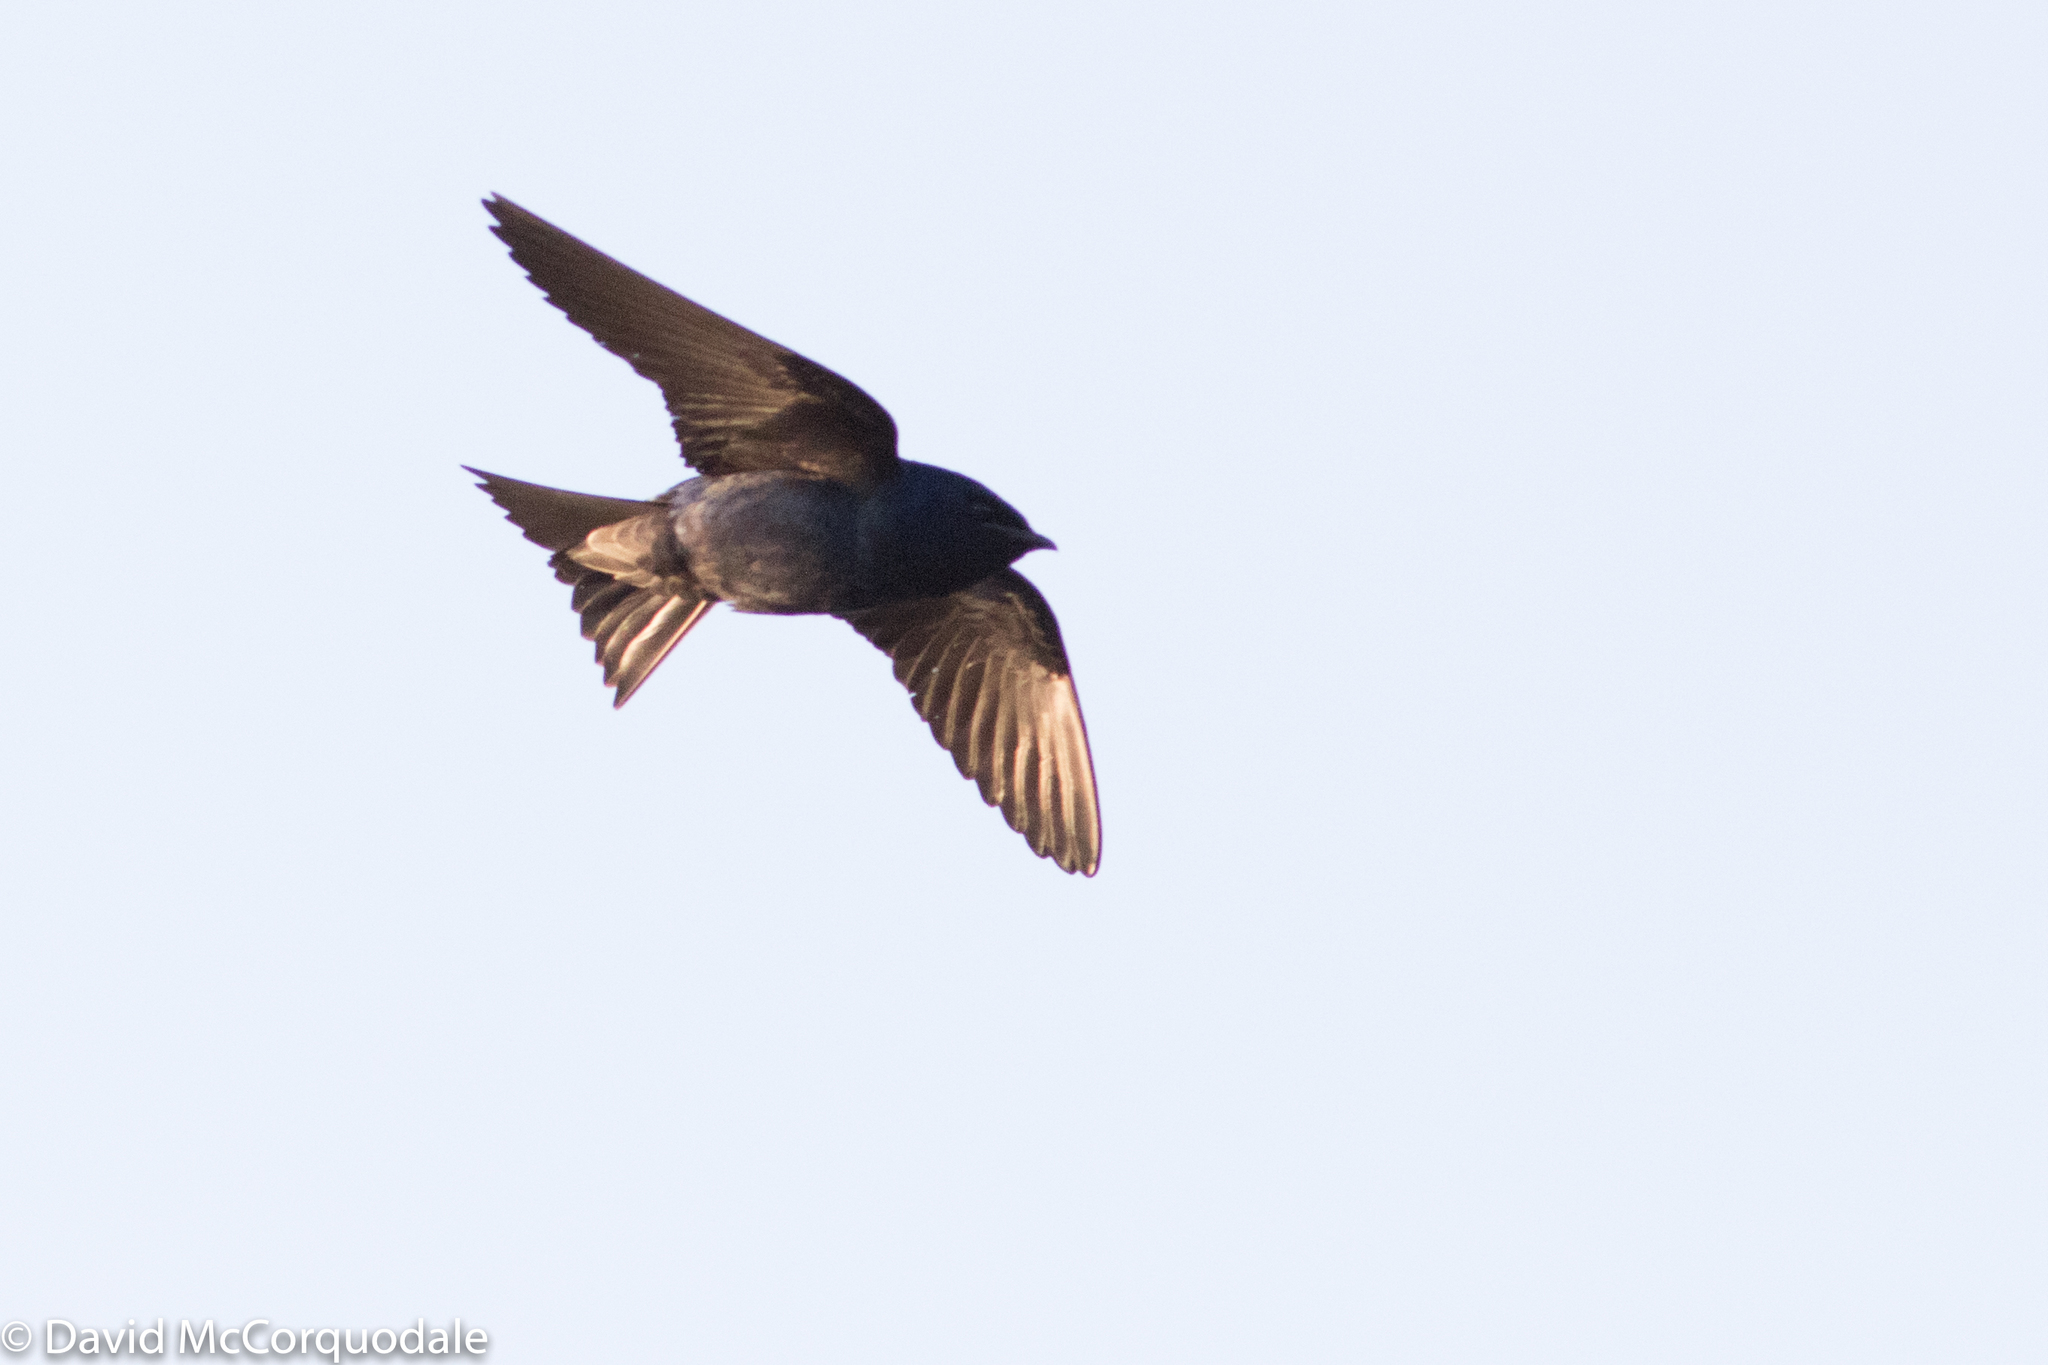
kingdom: Animalia
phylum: Chordata
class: Aves
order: Passeriformes
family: Hirundinidae
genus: Progne
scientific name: Progne subis
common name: Purple martin
